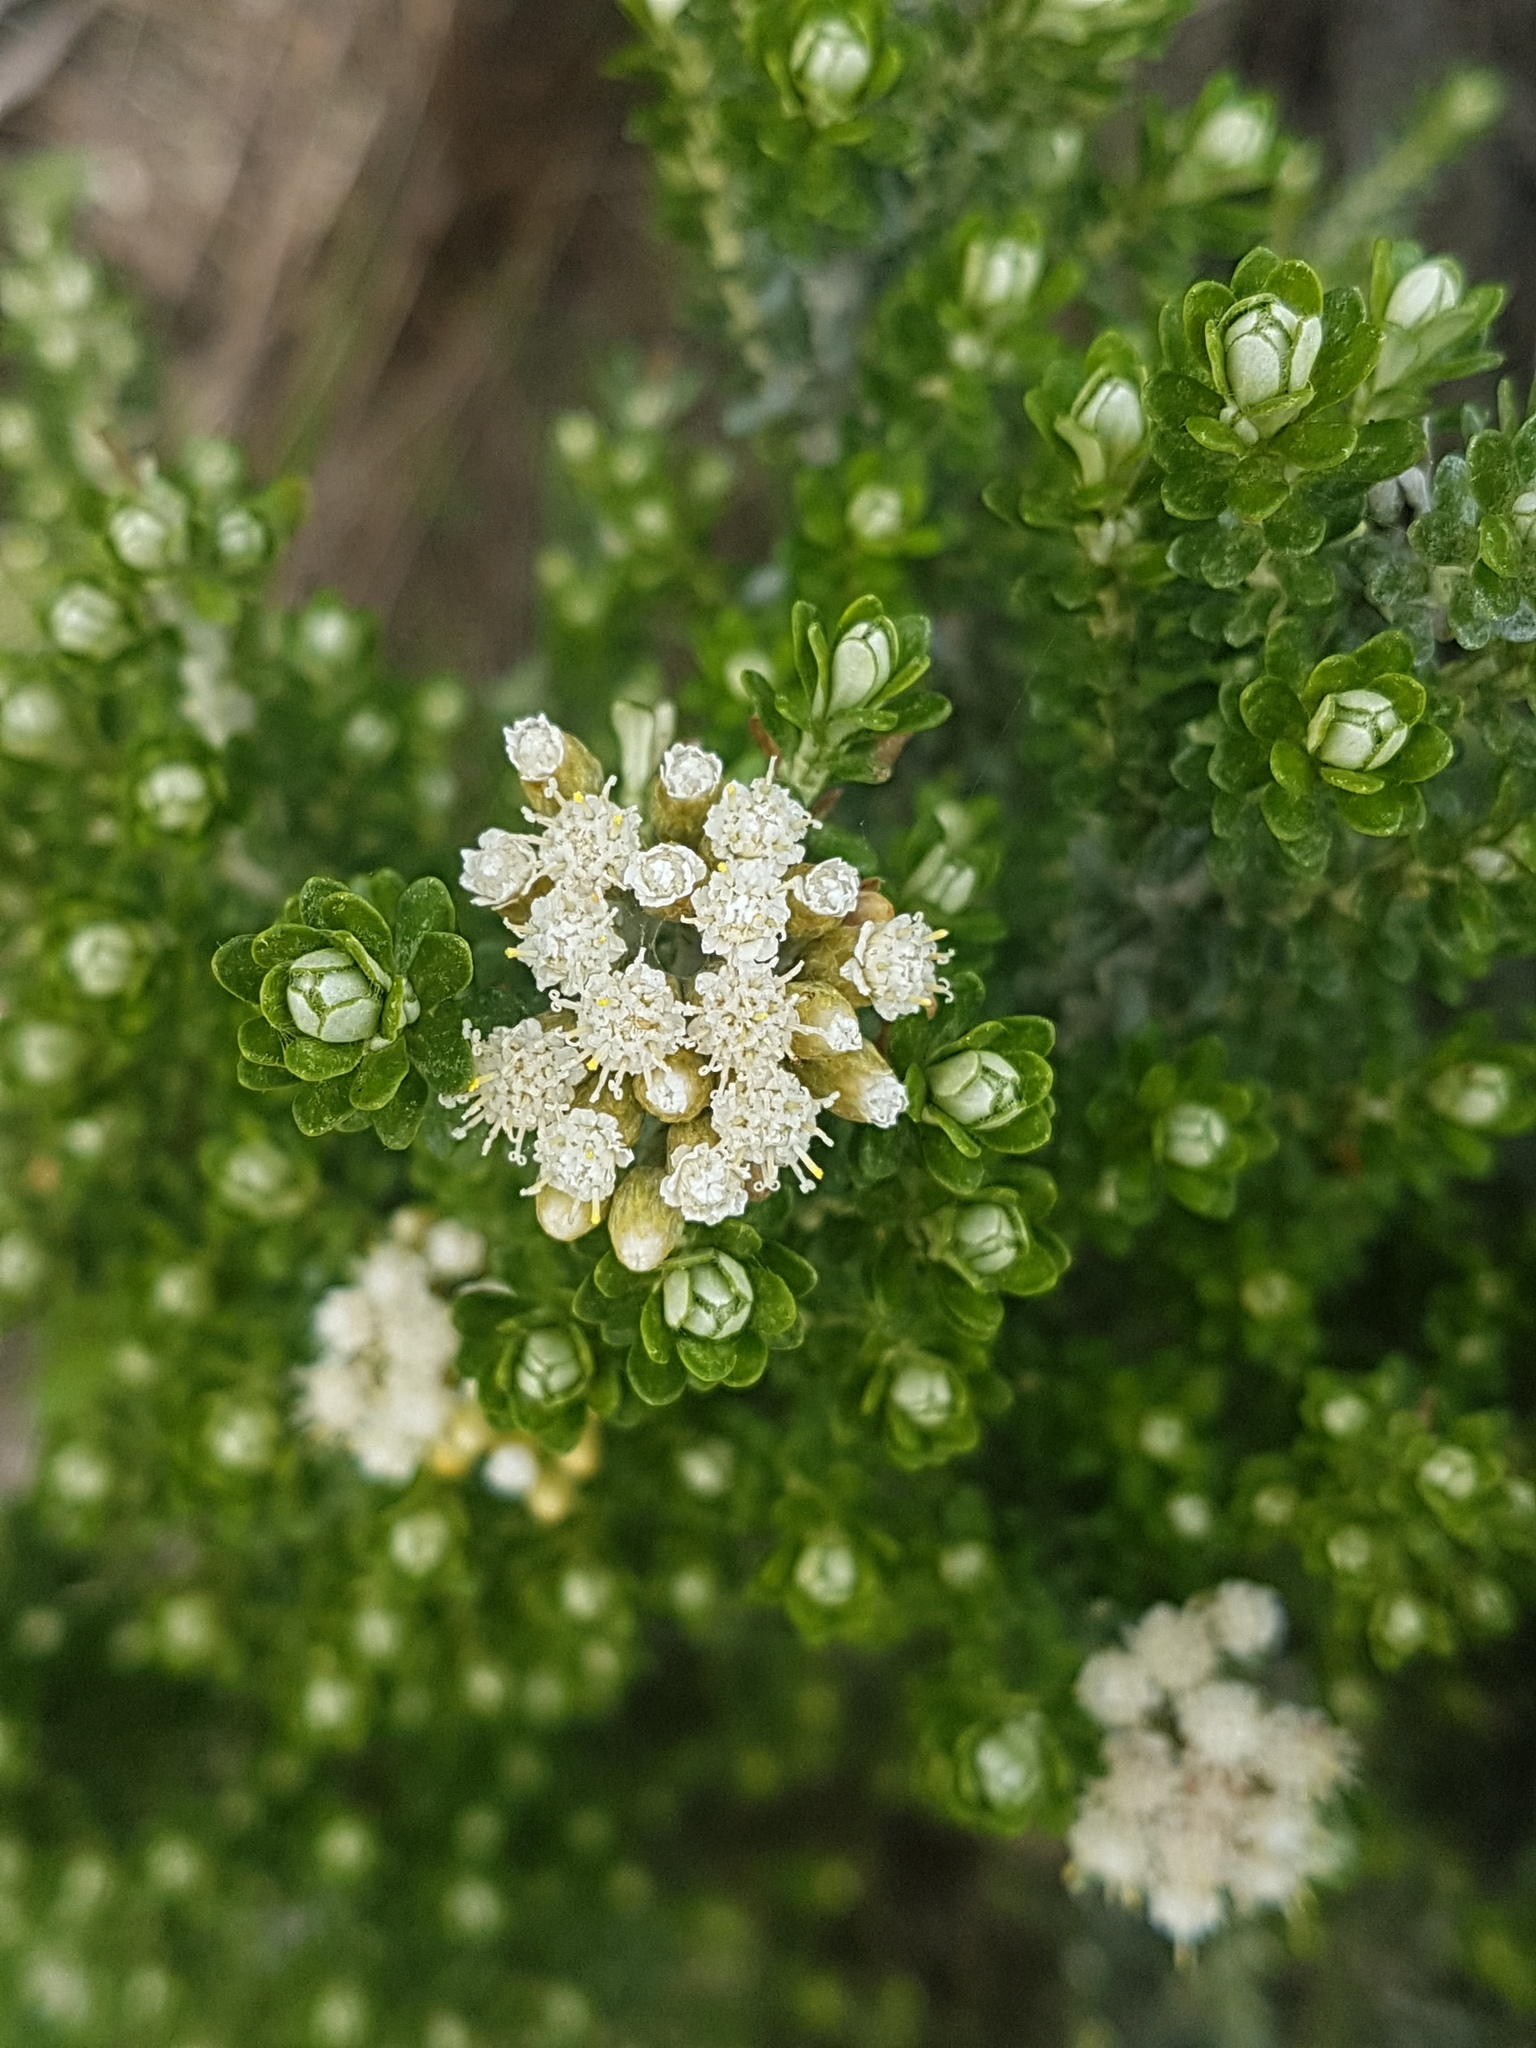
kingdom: Plantae
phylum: Tracheophyta
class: Magnoliopsida
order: Asterales
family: Asteraceae
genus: Ozothamnus
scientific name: Ozothamnus leptophyllus
